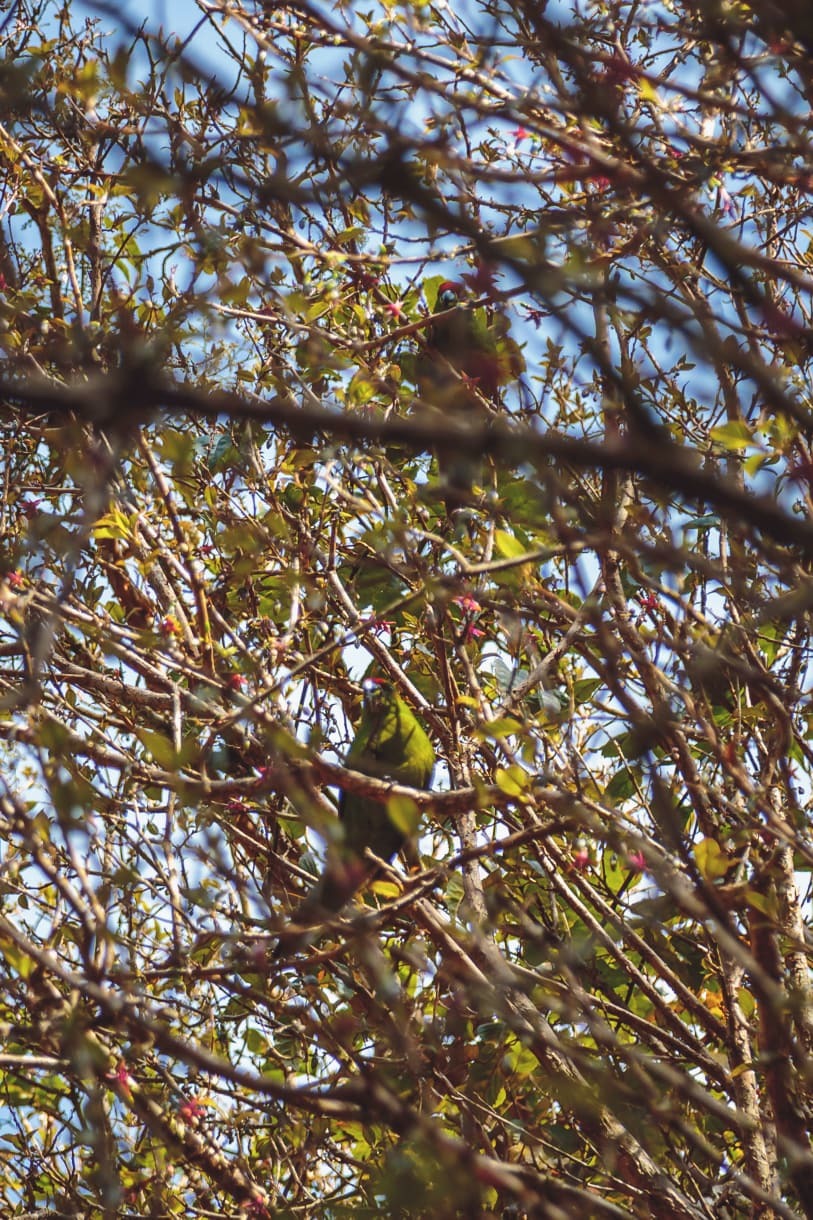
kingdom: Animalia
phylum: Chordata
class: Aves
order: Psittaciformes
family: Psittacidae
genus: Cyanoramphus
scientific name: Cyanoramphus
